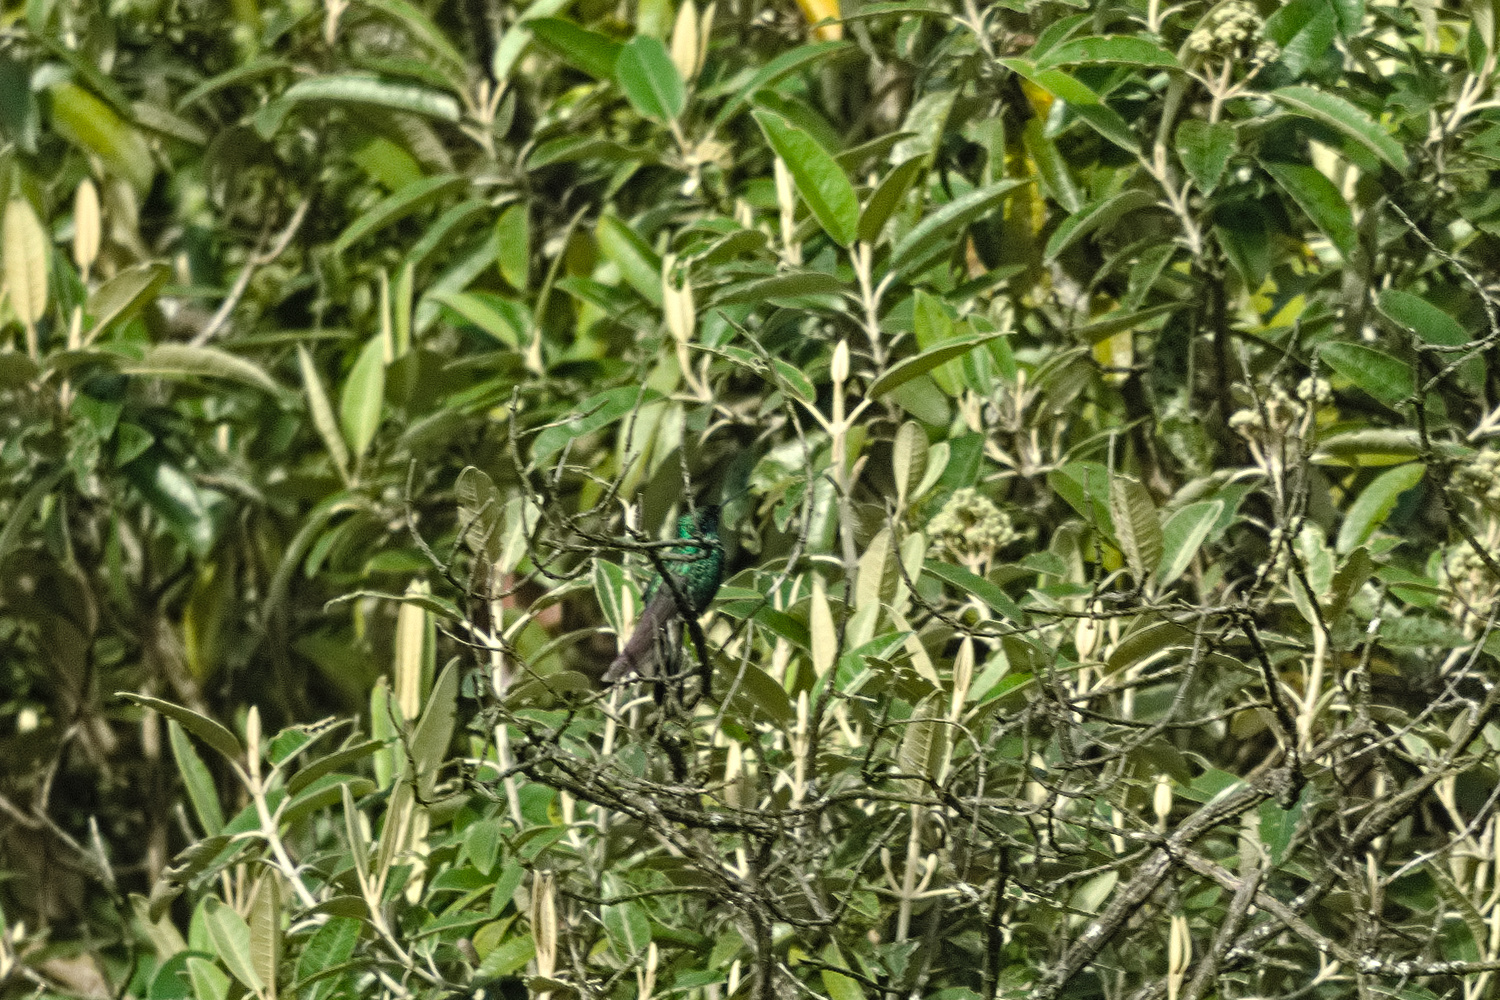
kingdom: Animalia
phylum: Chordata
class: Aves
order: Apodiformes
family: Trochilidae
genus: Colibri
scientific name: Colibri coruscans
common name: Sparkling violetear
